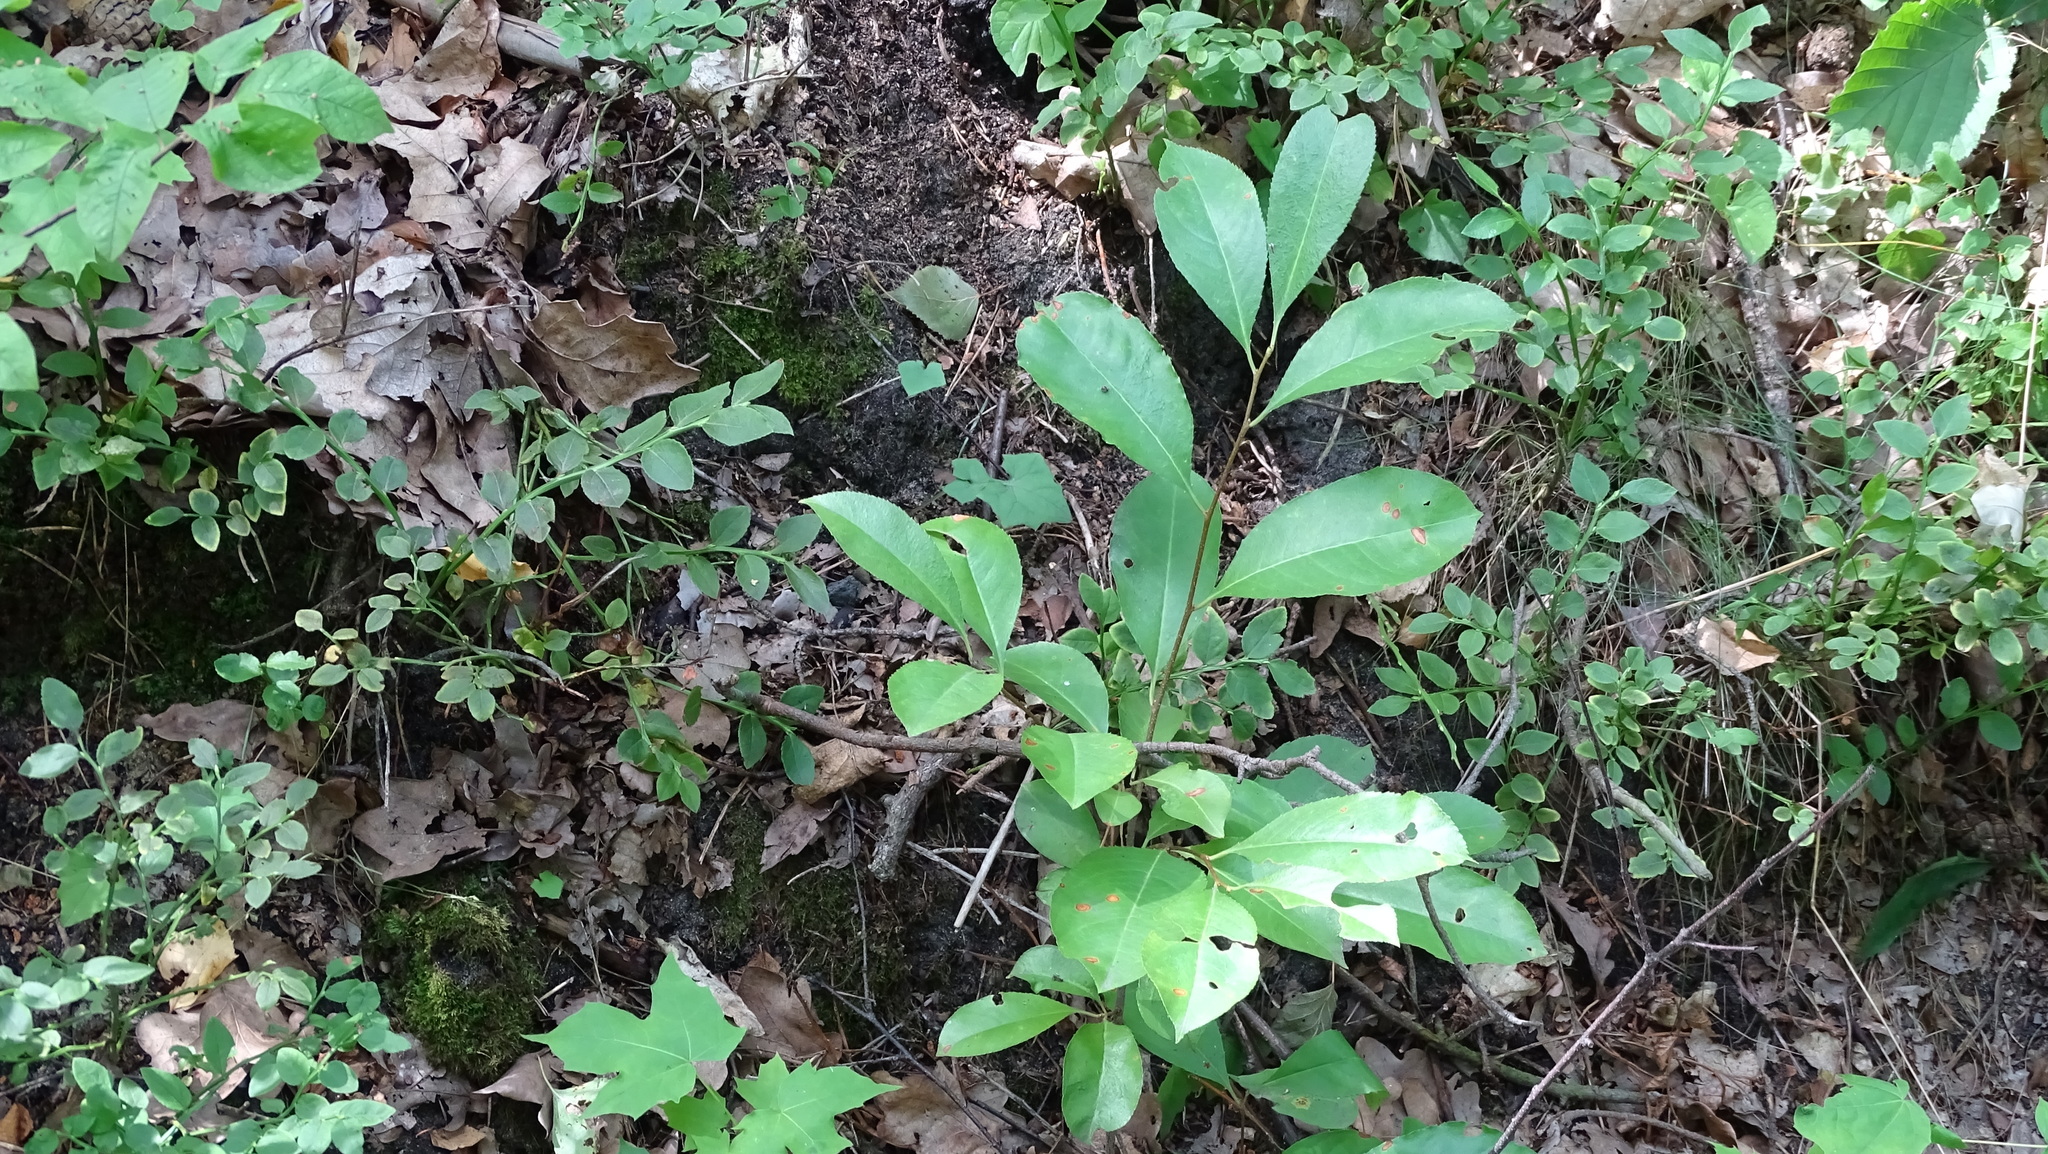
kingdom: Plantae
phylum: Tracheophyta
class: Magnoliopsida
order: Rosales
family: Rosaceae
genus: Prunus
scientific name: Prunus serotina
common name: Black cherry
